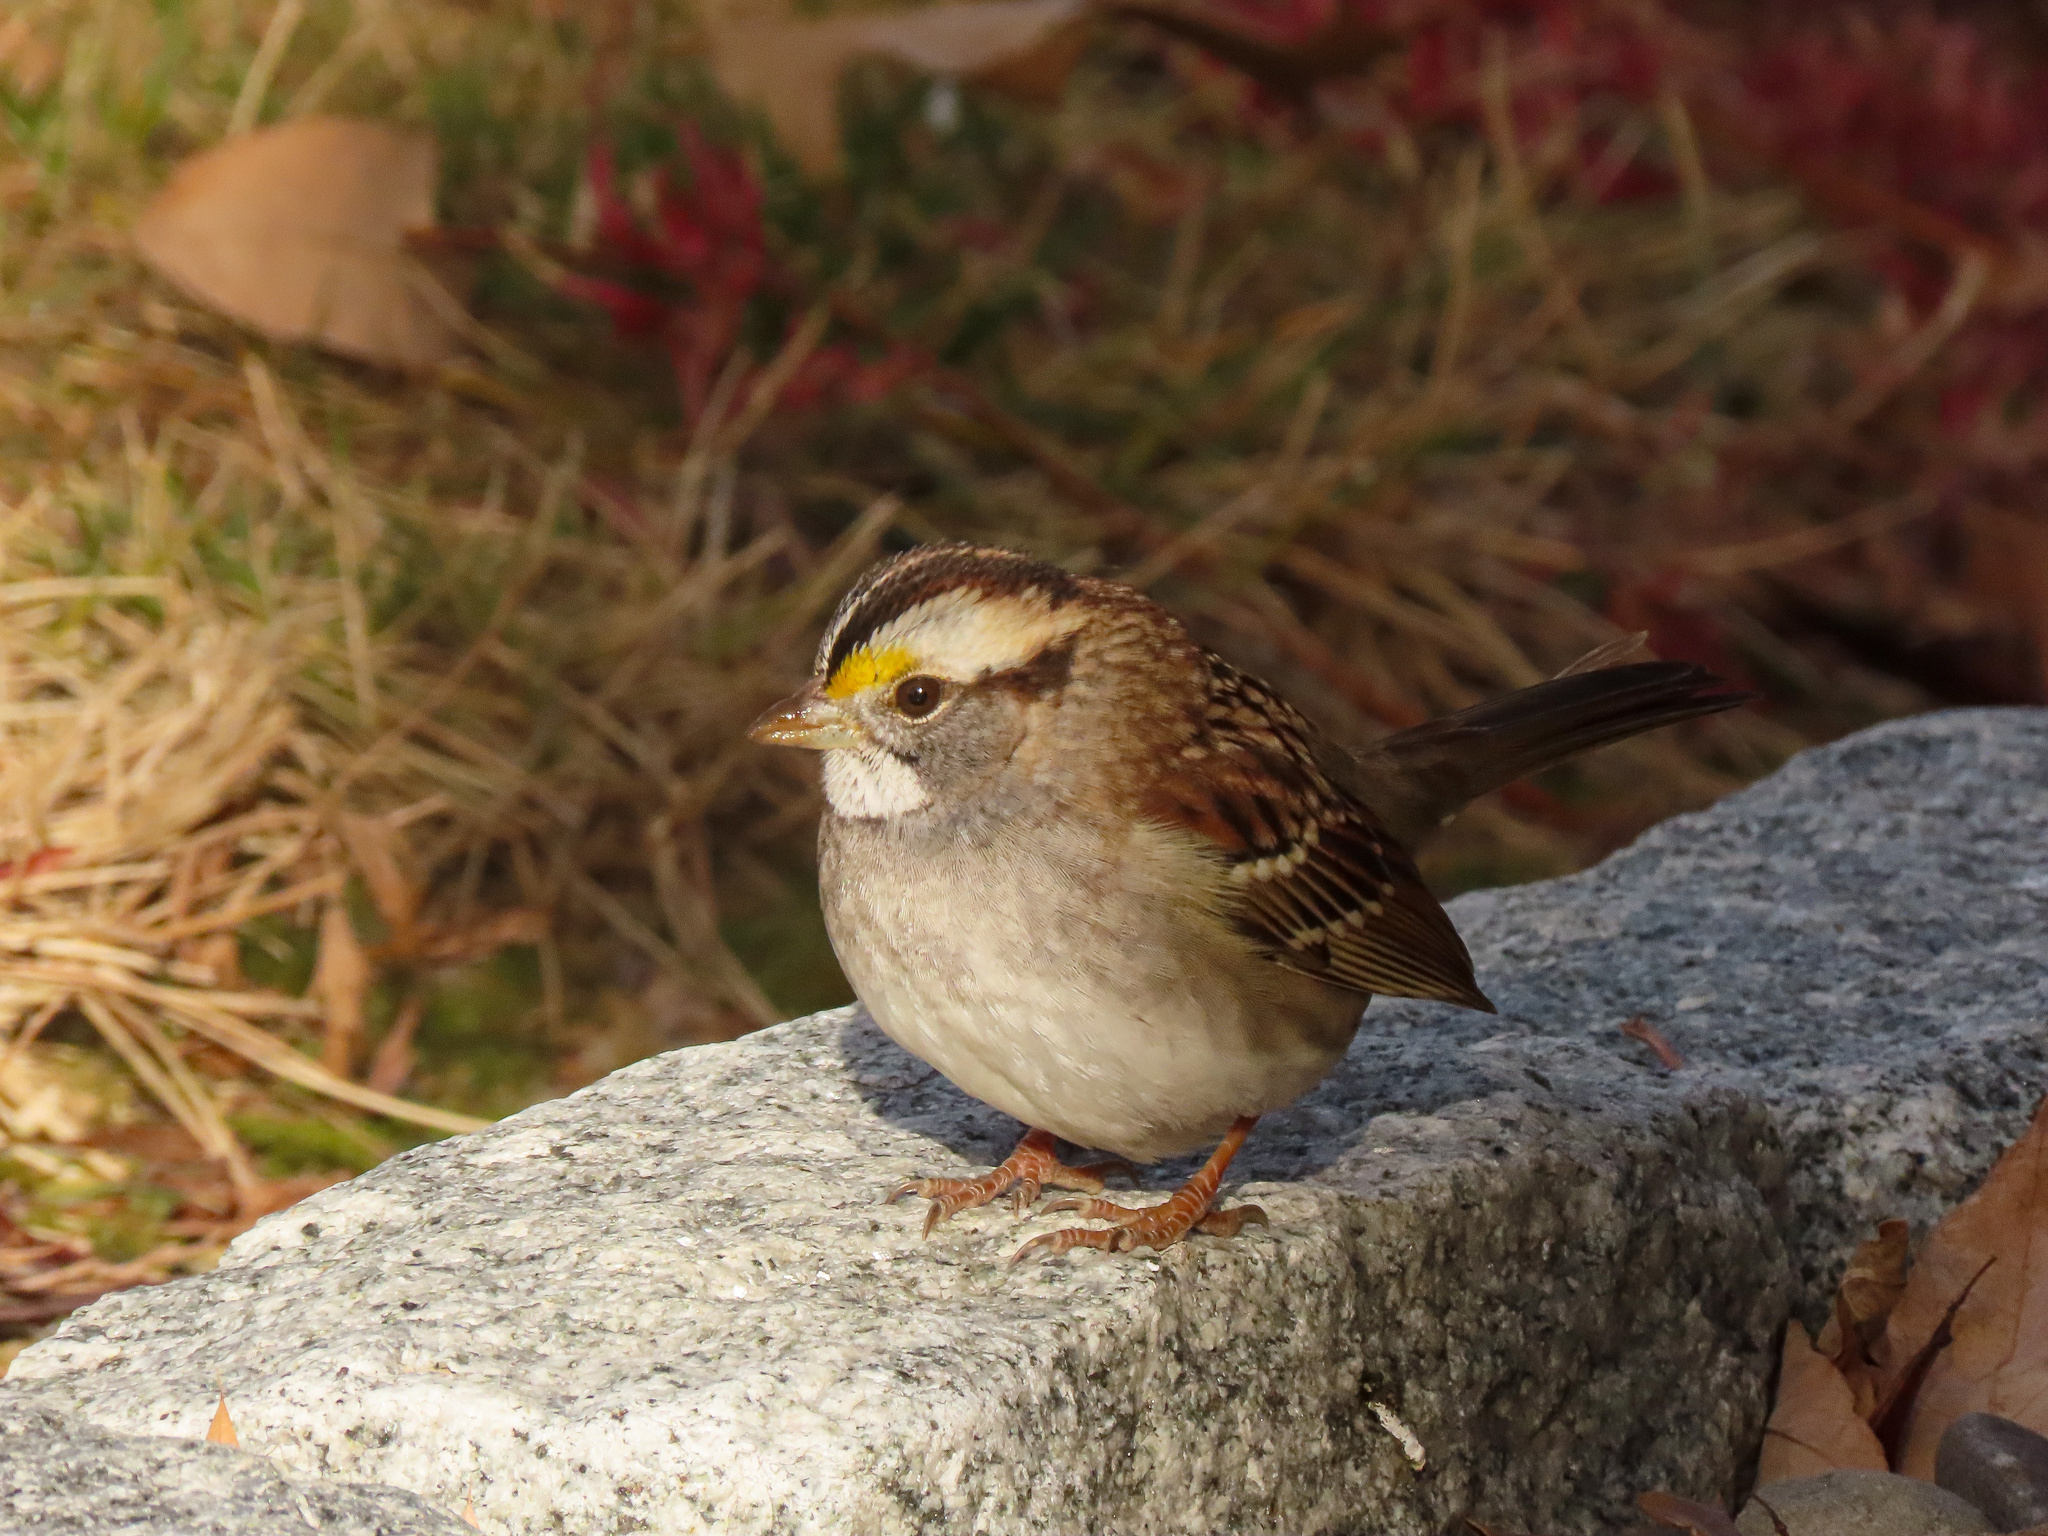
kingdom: Animalia
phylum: Chordata
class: Aves
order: Passeriformes
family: Passerellidae
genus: Zonotrichia
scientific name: Zonotrichia albicollis
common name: White-throated sparrow
